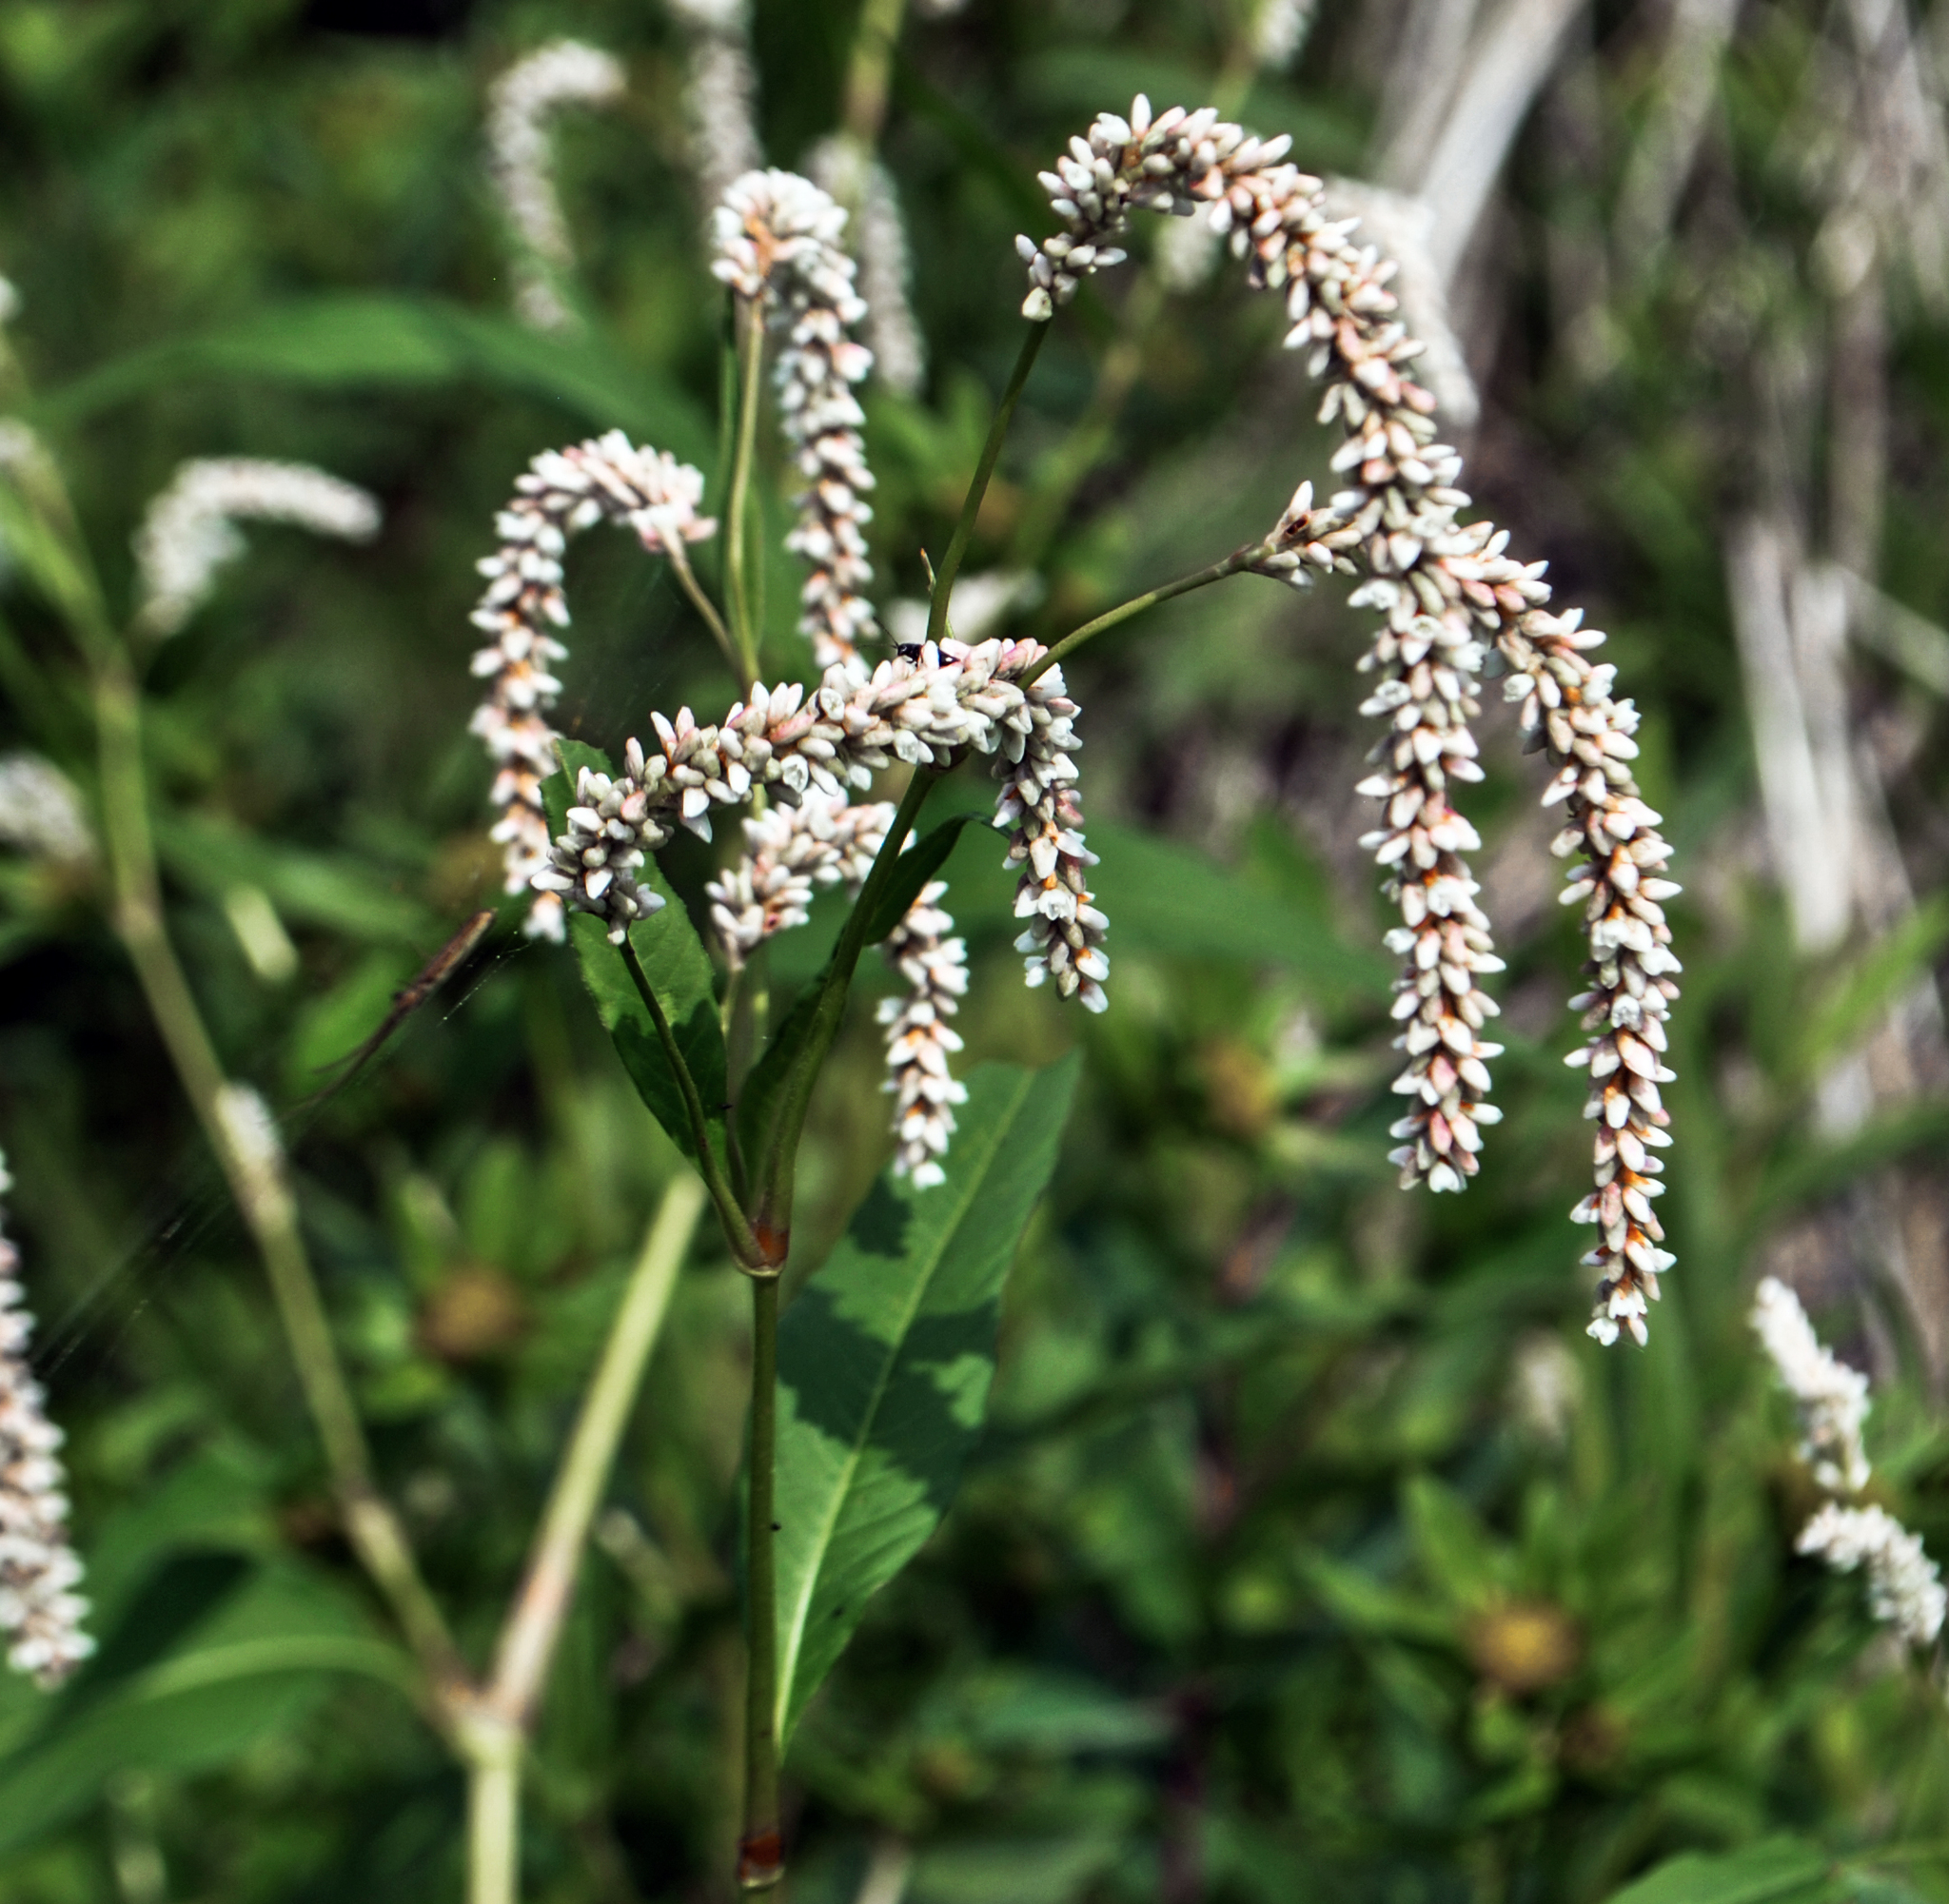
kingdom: Plantae
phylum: Tracheophyta
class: Magnoliopsida
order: Caryophyllales
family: Polygonaceae
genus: Persicaria
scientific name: Persicaria lapathifolia
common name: Curlytop knotweed
